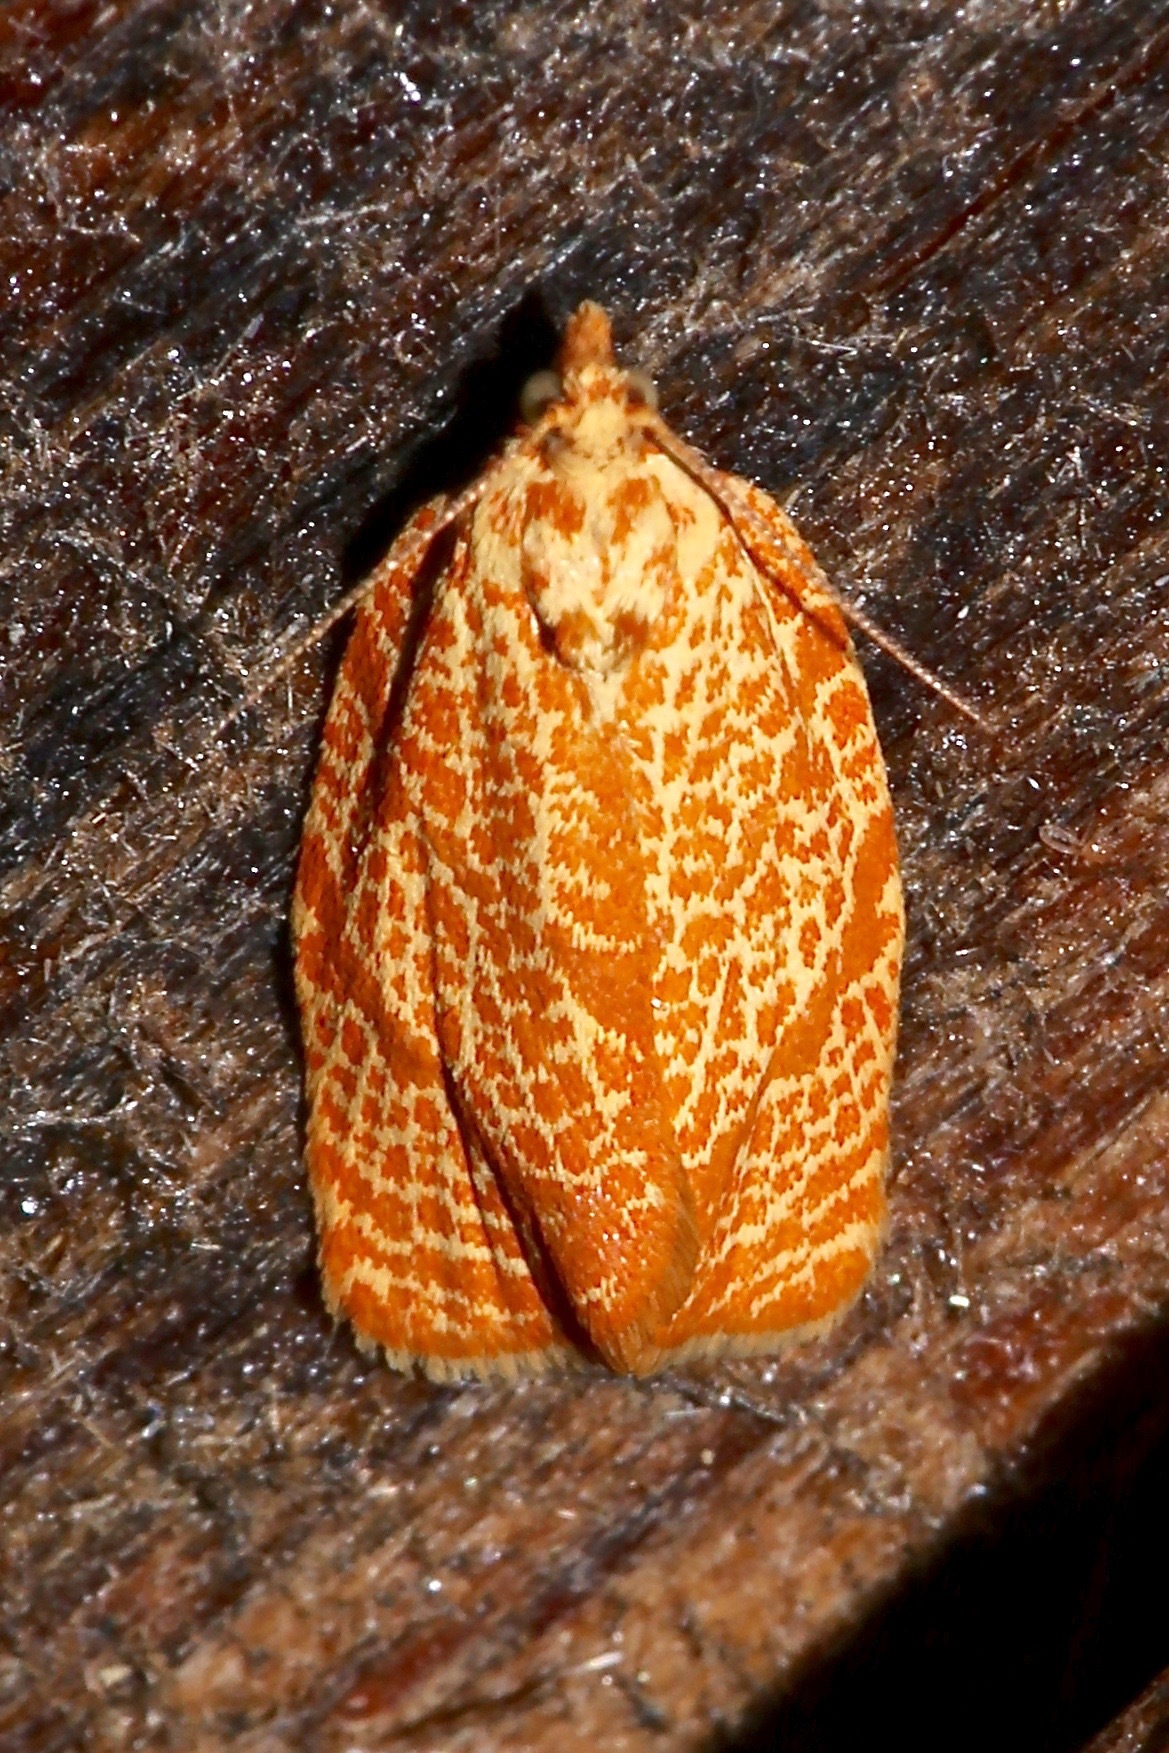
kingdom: Animalia
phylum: Arthropoda
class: Insecta
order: Lepidoptera
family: Tortricidae
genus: Argyrotaenia
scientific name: Argyrotaenia quadrifasciana
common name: Four-lined leafroller moth
